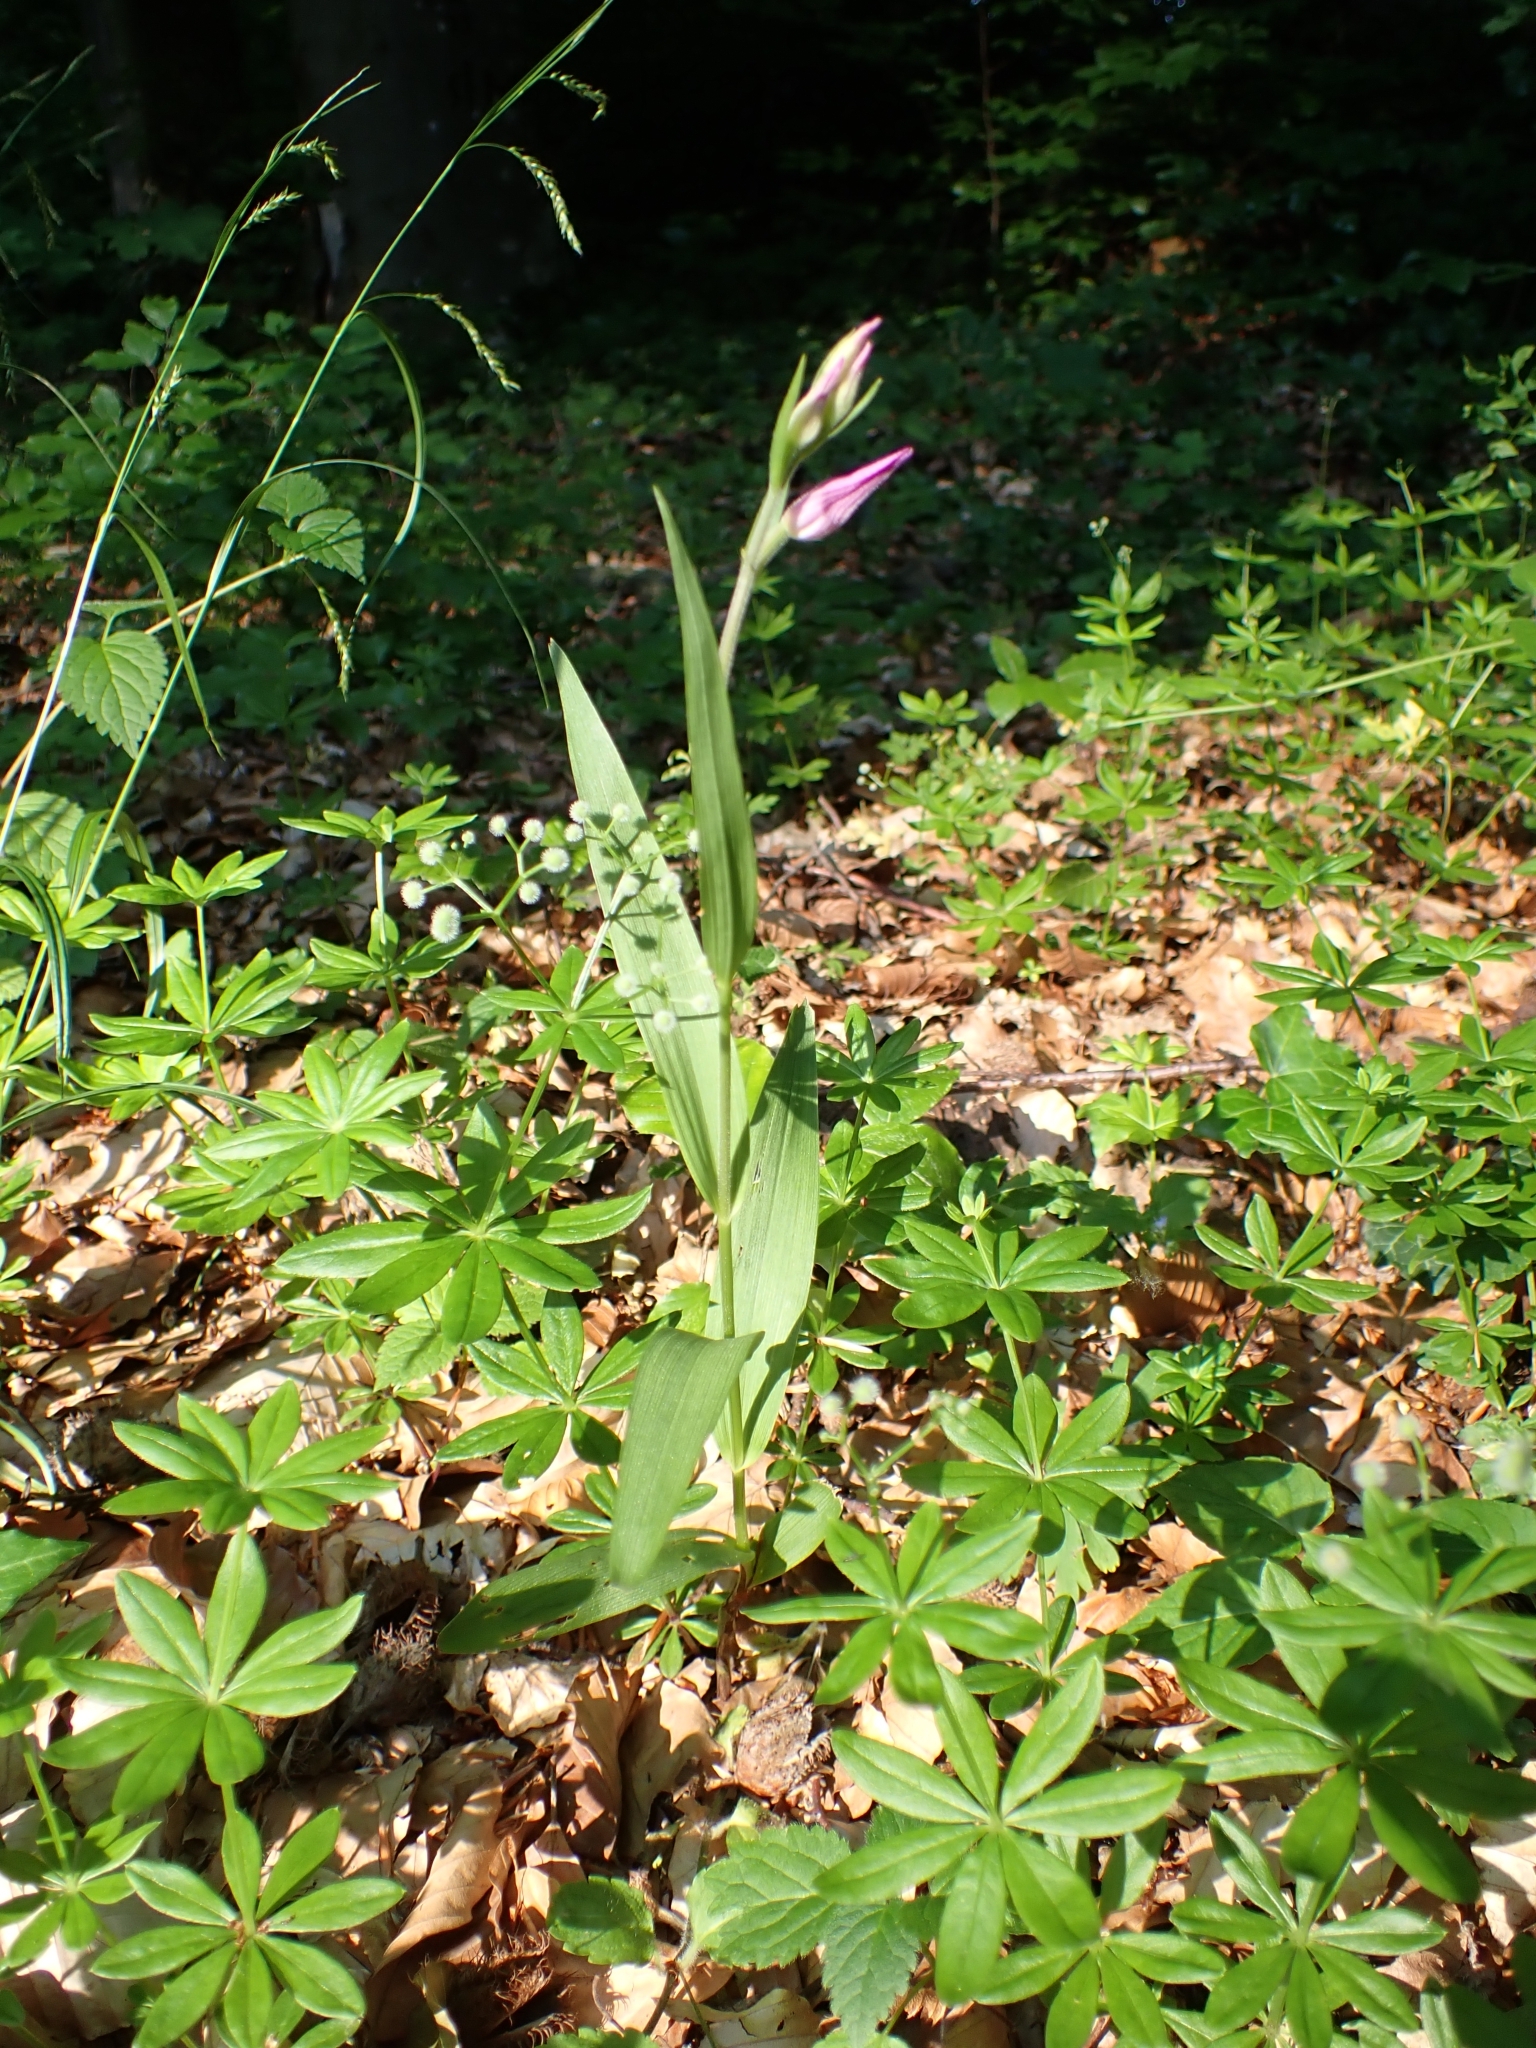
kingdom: Plantae
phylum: Tracheophyta
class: Liliopsida
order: Asparagales
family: Orchidaceae
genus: Cephalanthera
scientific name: Cephalanthera rubra
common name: Red helleborine
